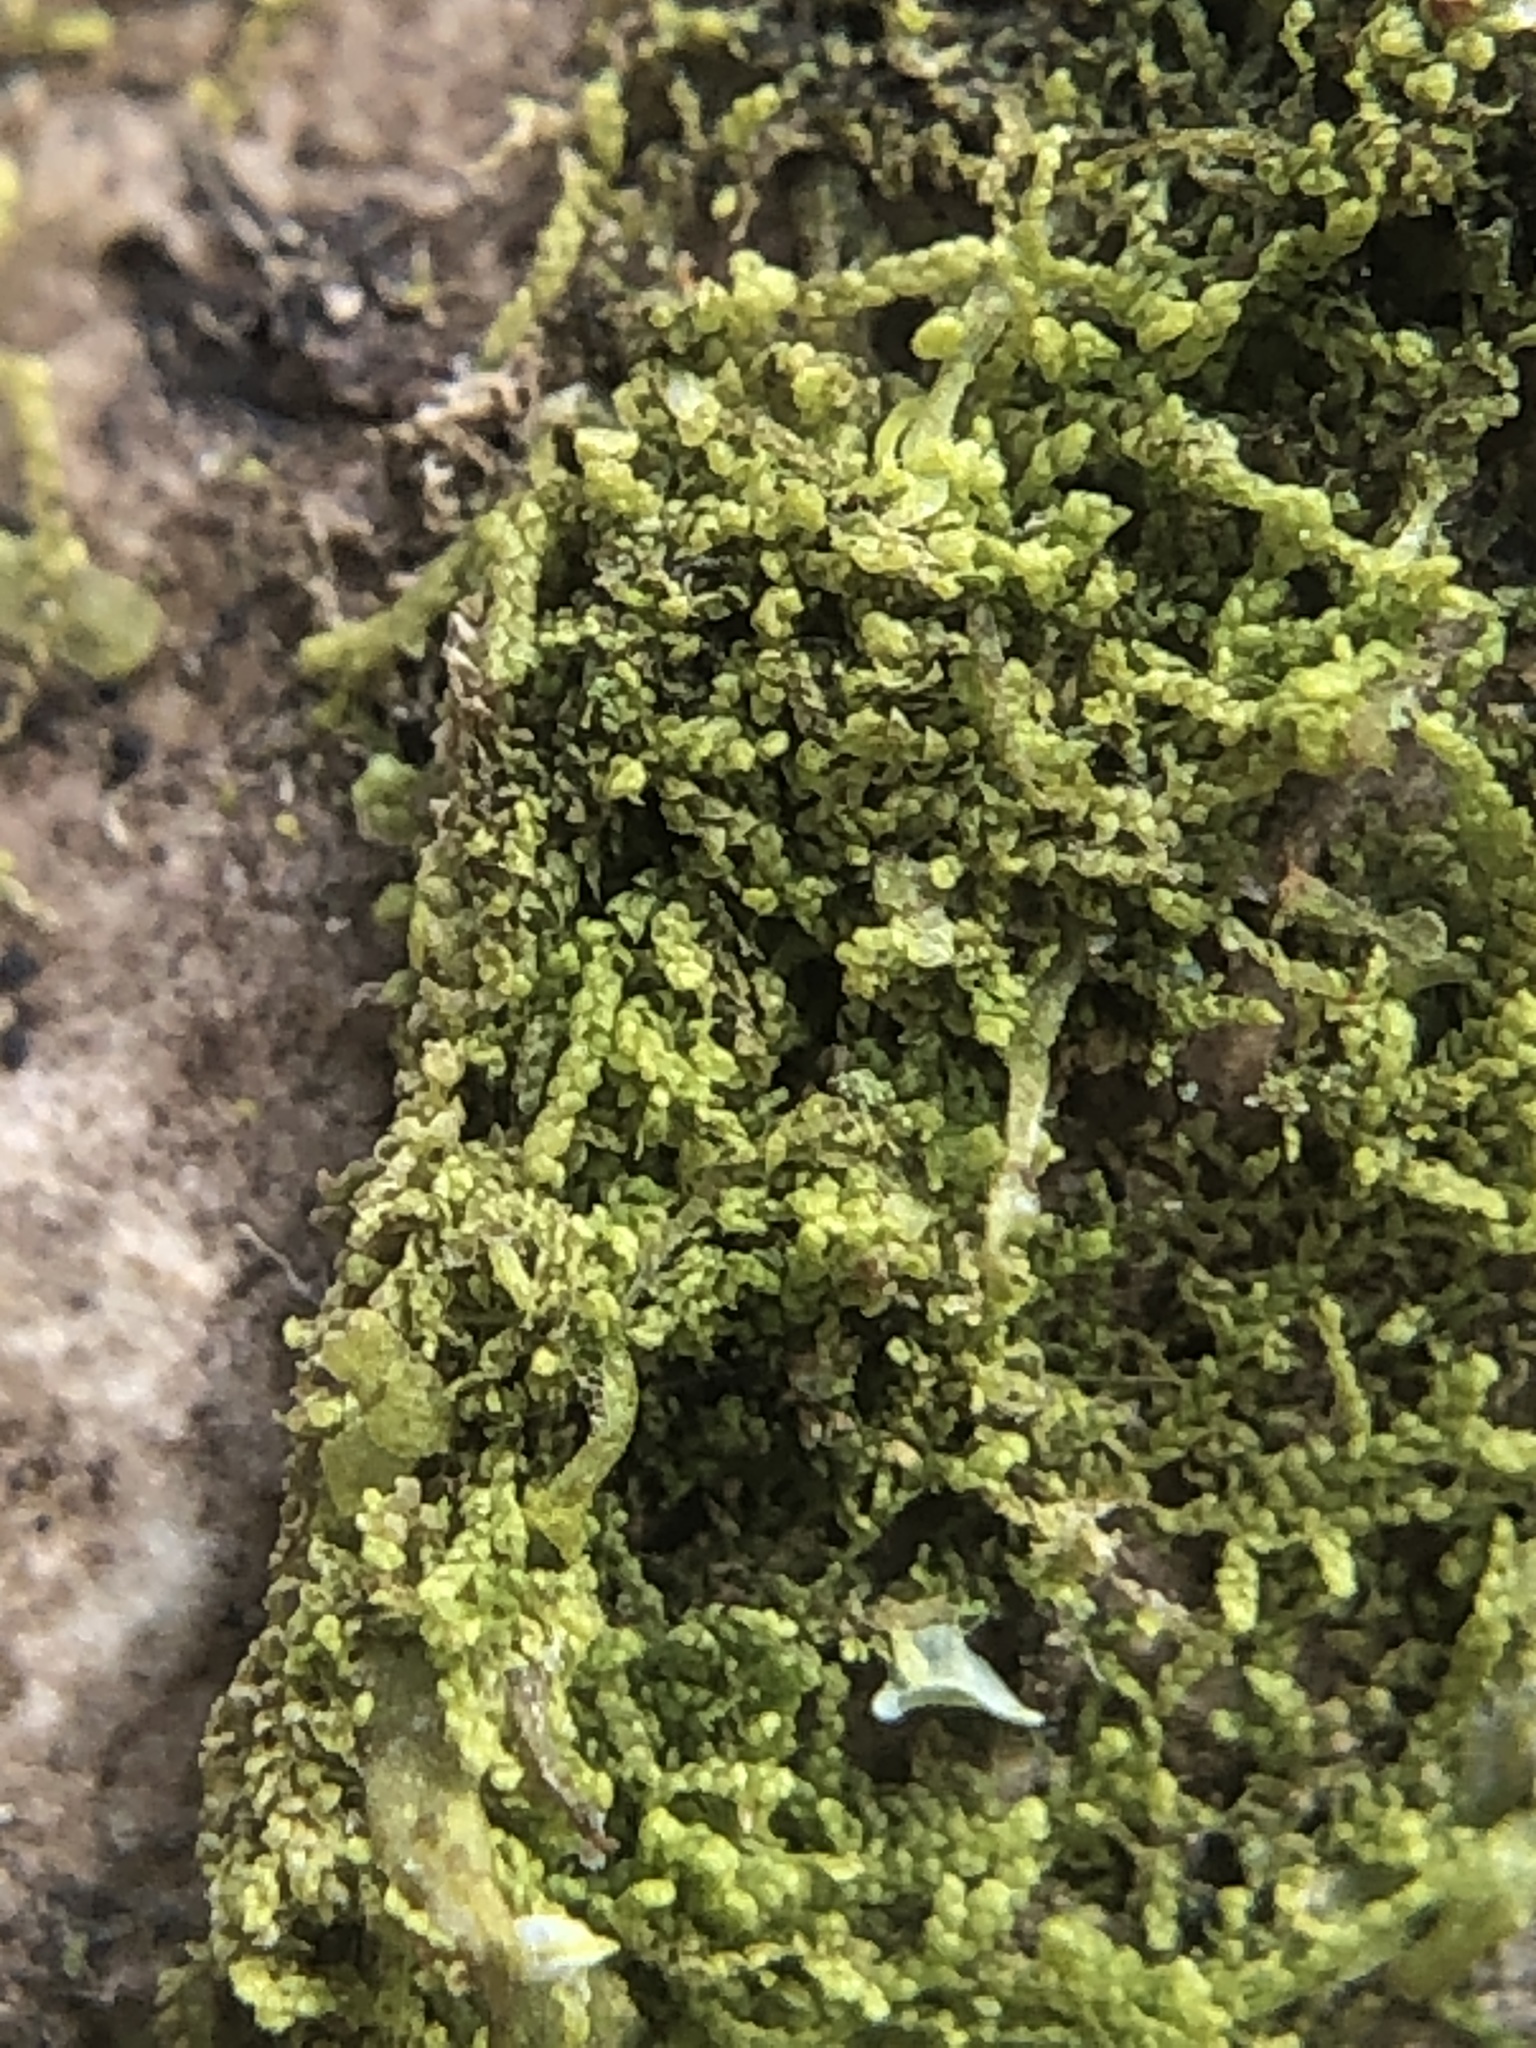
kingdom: Plantae
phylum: Marchantiophyta
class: Jungermanniopsida
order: Porellales
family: Lejeuneaceae
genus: Lejeunea
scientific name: Lejeunea cavifolia
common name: Least pouncewort
